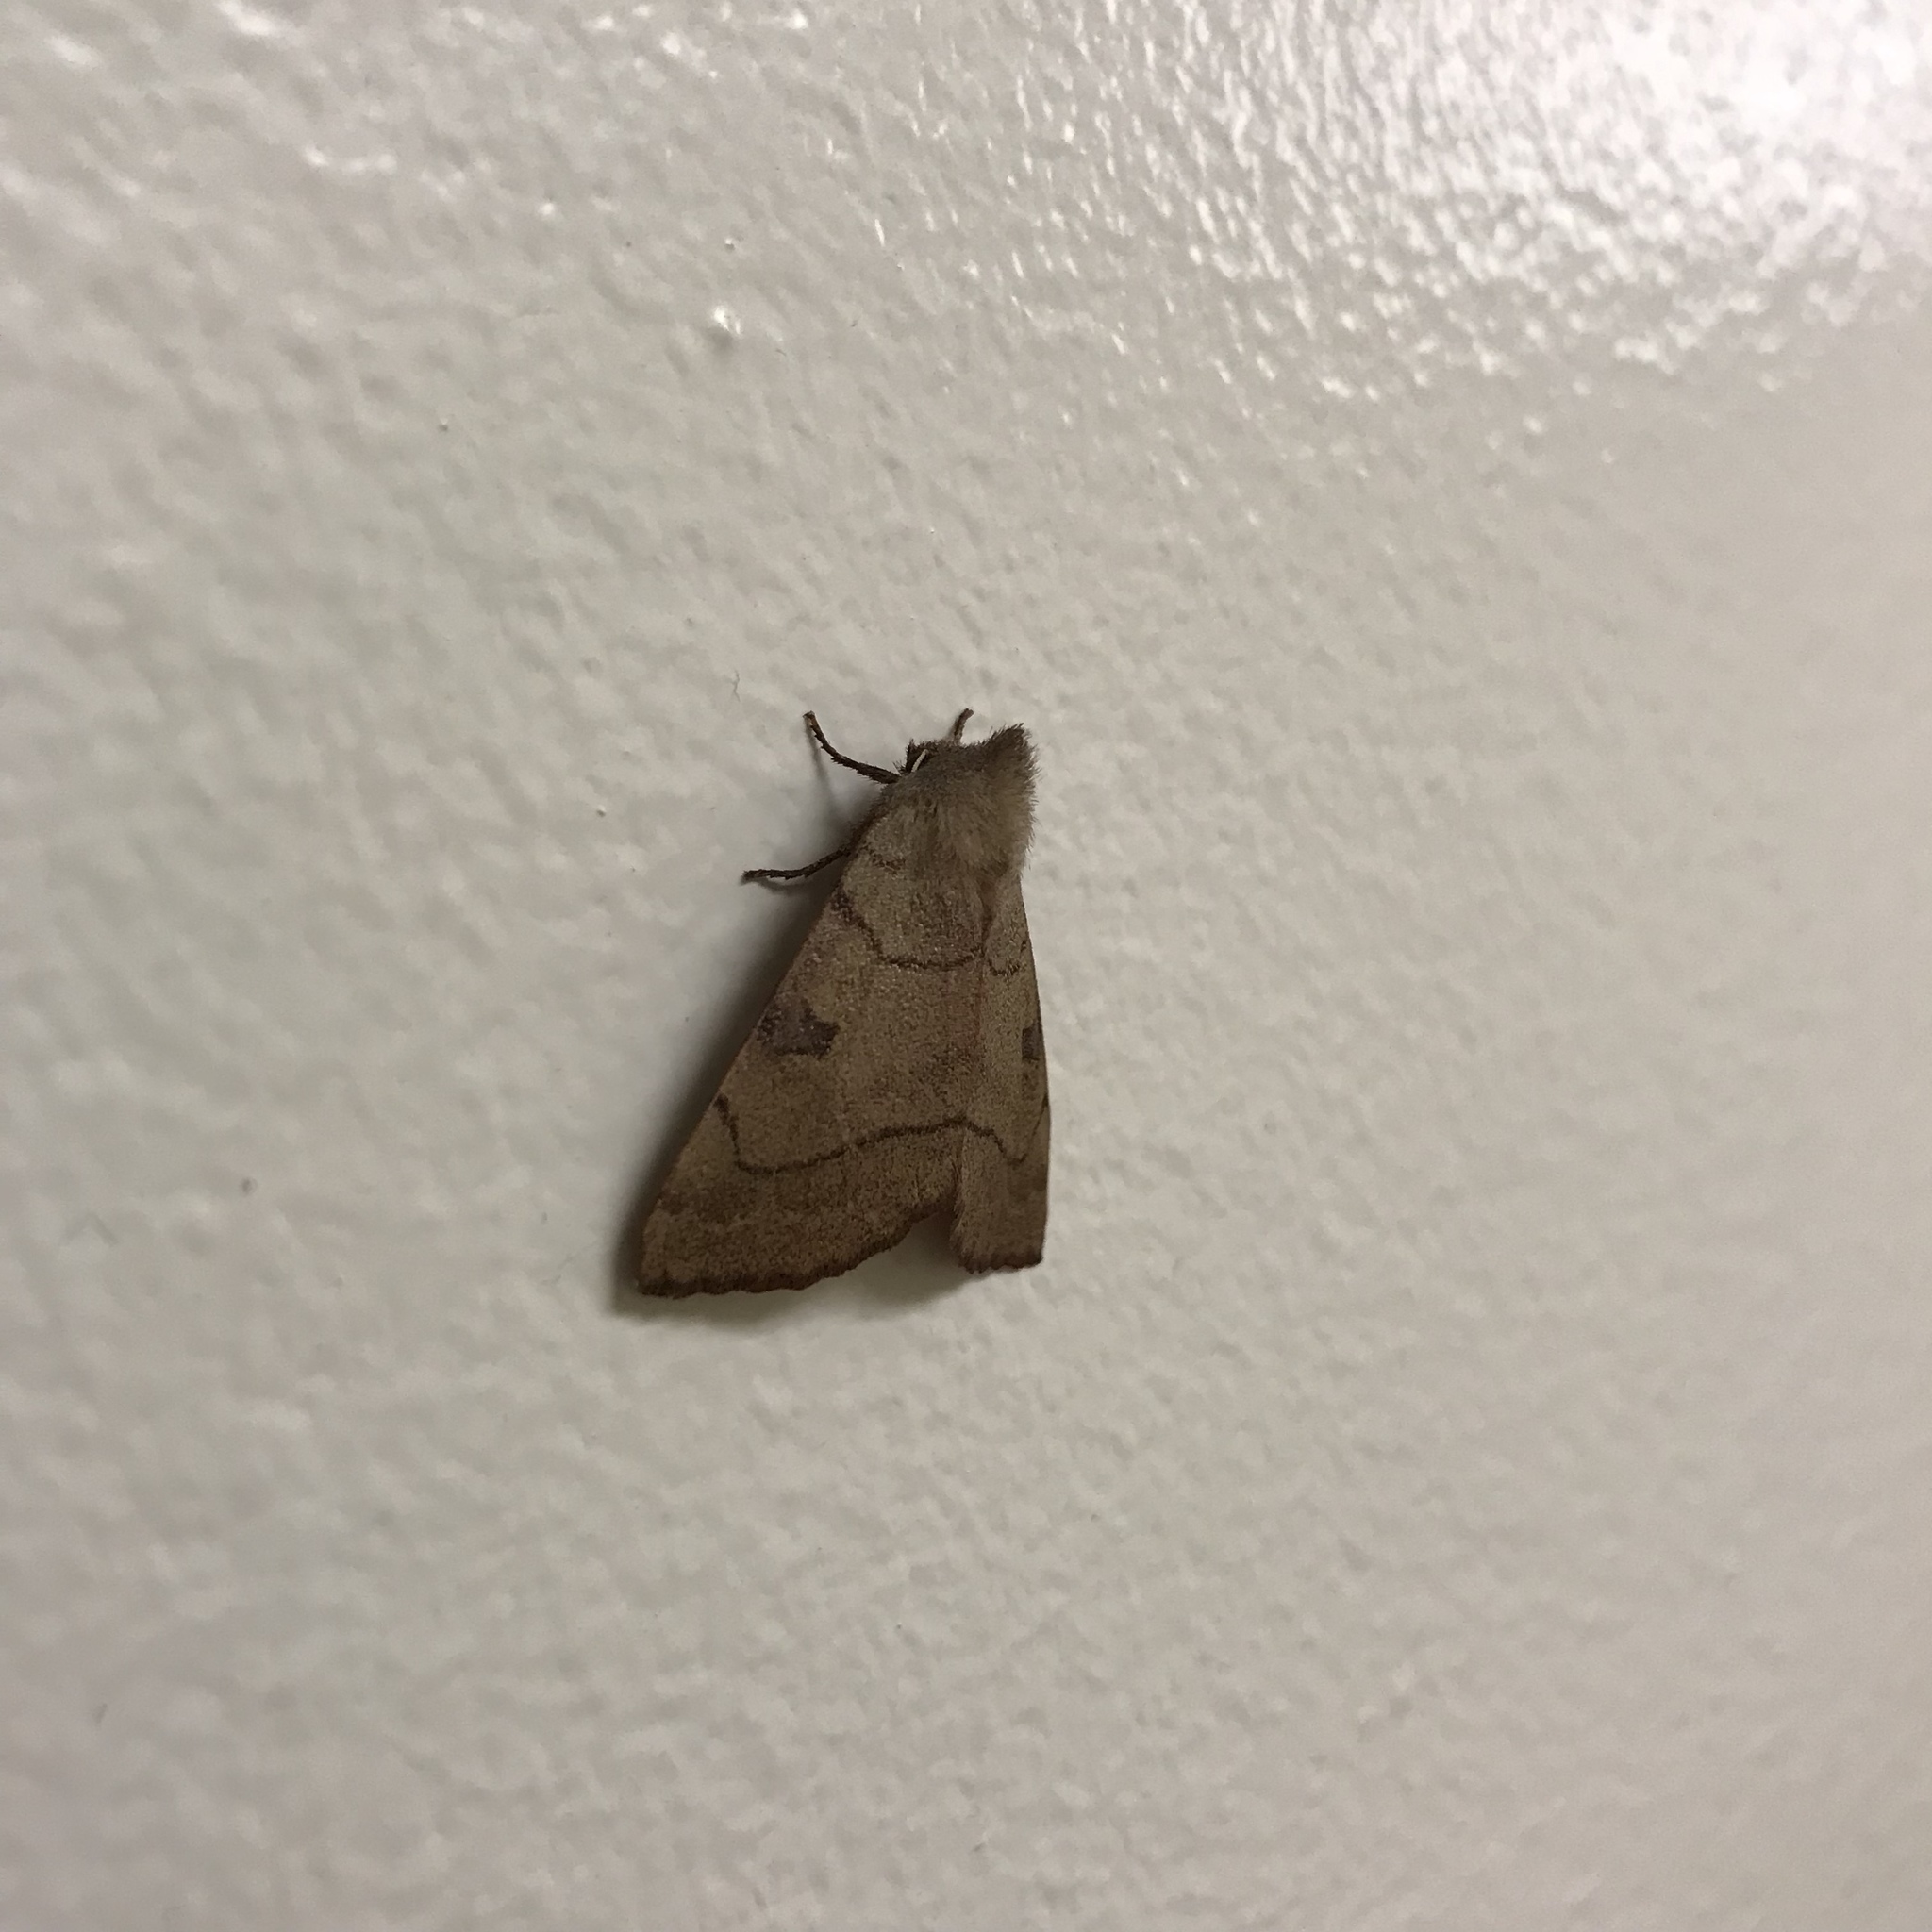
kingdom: Animalia
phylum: Arthropoda
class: Insecta
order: Lepidoptera
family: Noctuidae
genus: Choephora
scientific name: Choephora fungorum
